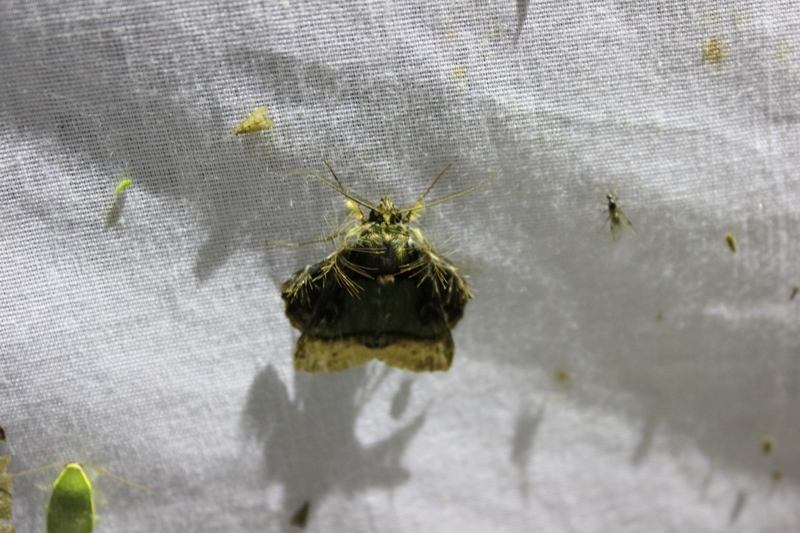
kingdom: Animalia
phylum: Arthropoda
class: Insecta
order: Lepidoptera
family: Erebidae
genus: Ceroctena
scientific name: Ceroctena amynta
